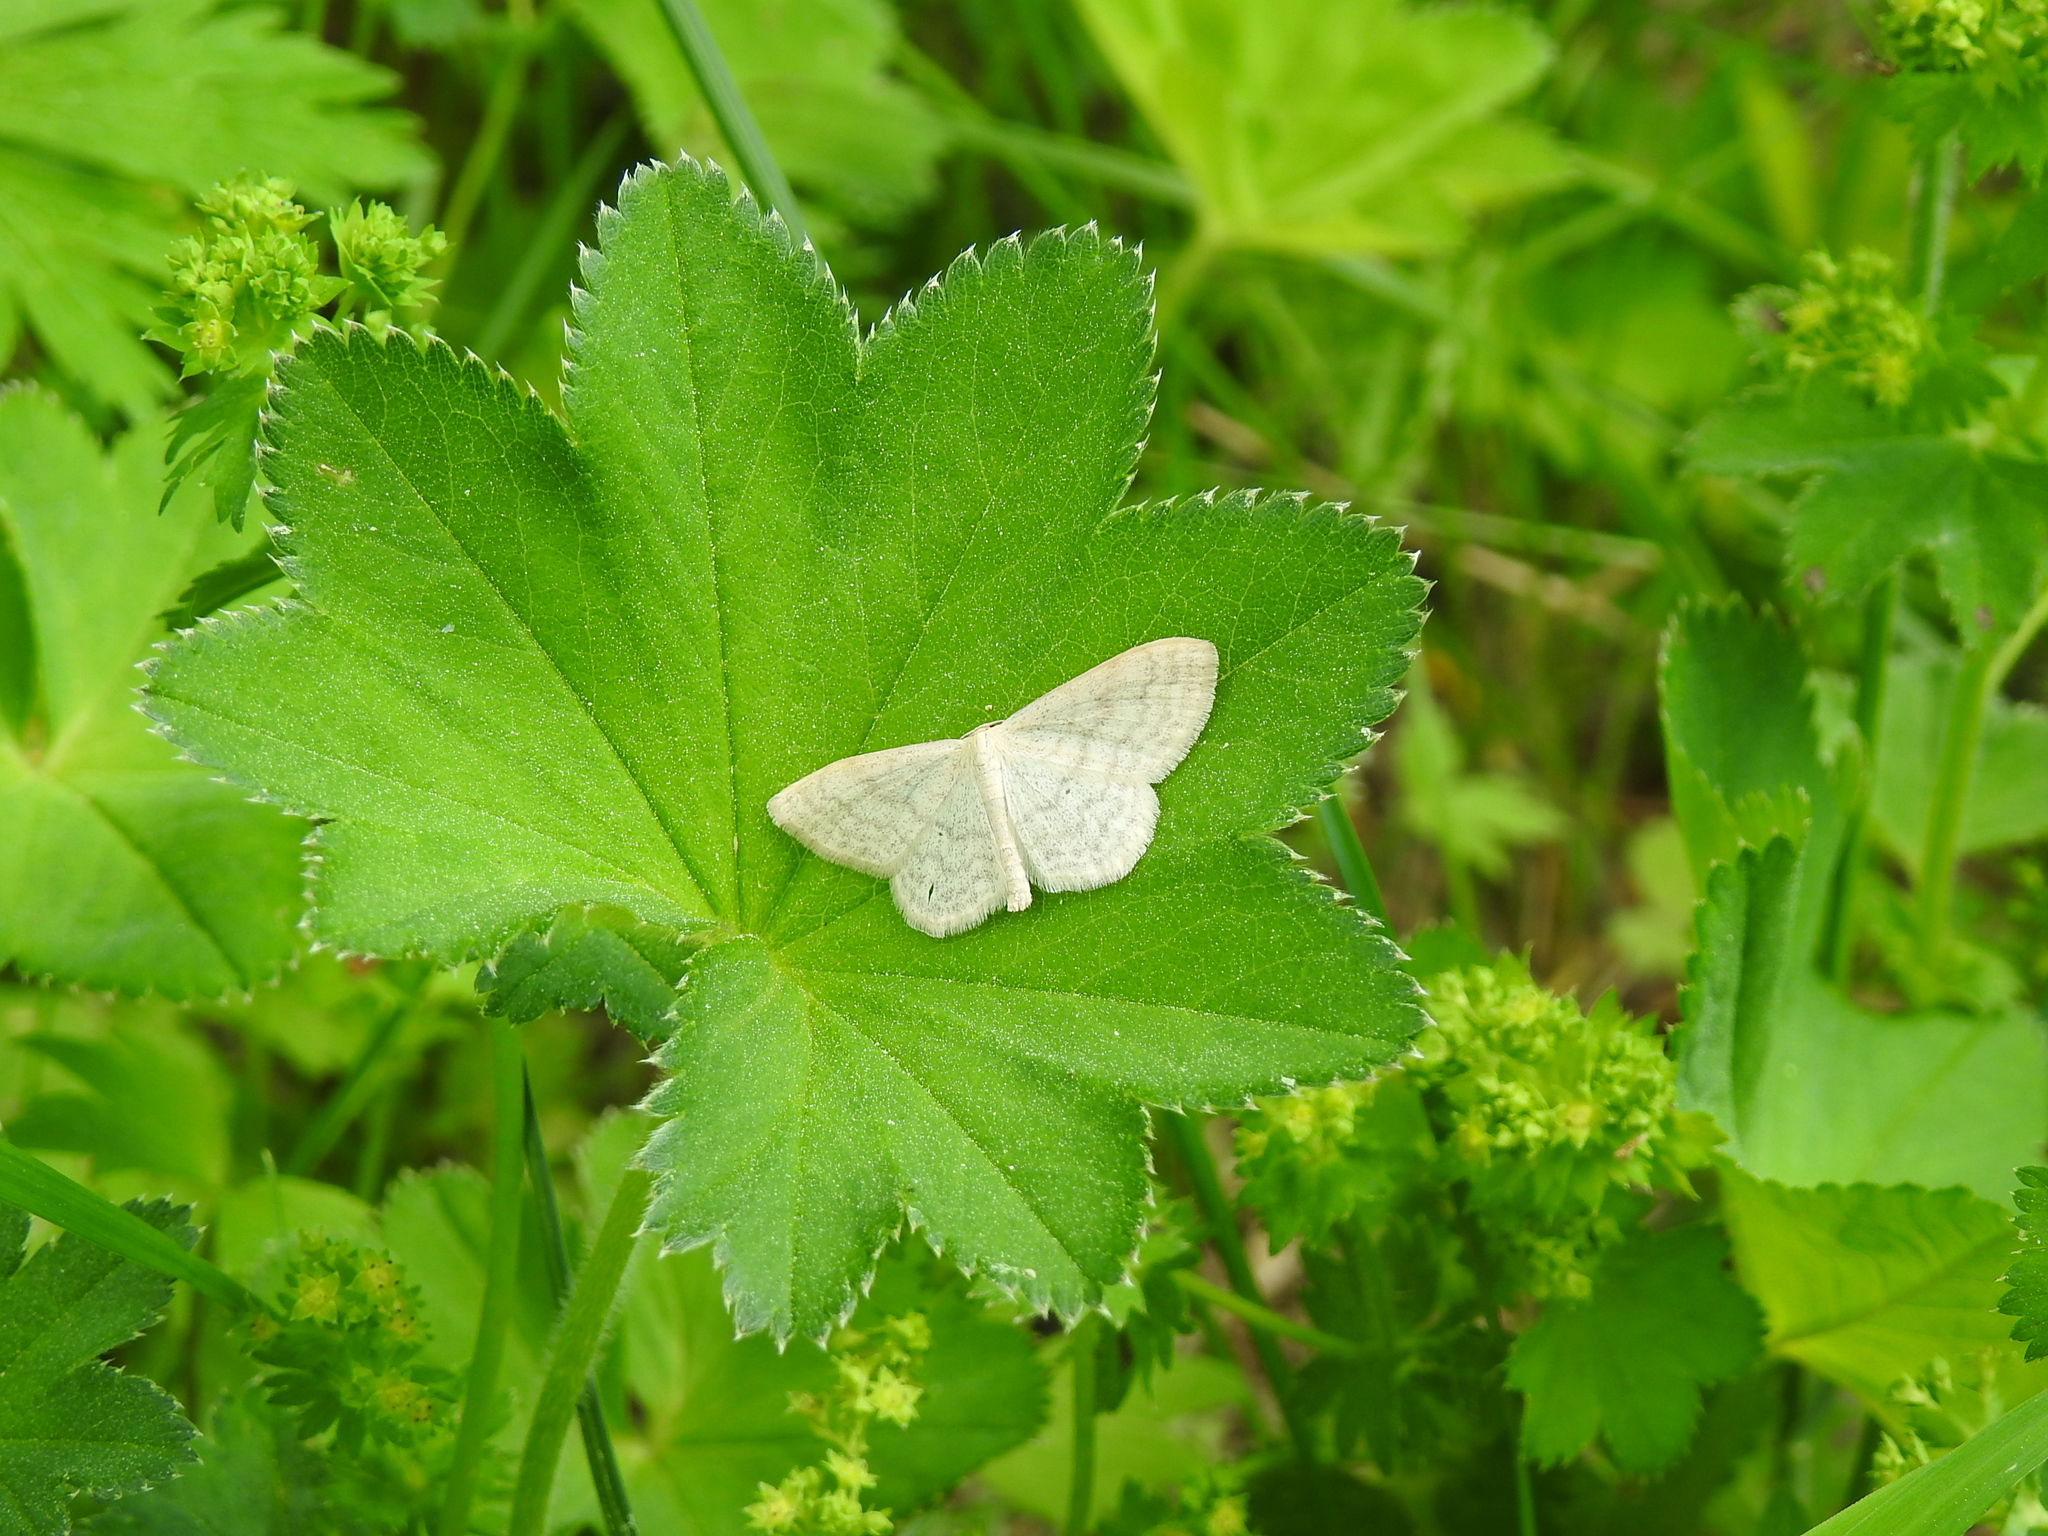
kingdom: Animalia
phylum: Arthropoda
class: Insecta
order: Lepidoptera
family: Geometridae
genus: Scopula
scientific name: Scopula floslactata
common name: Cream wave
